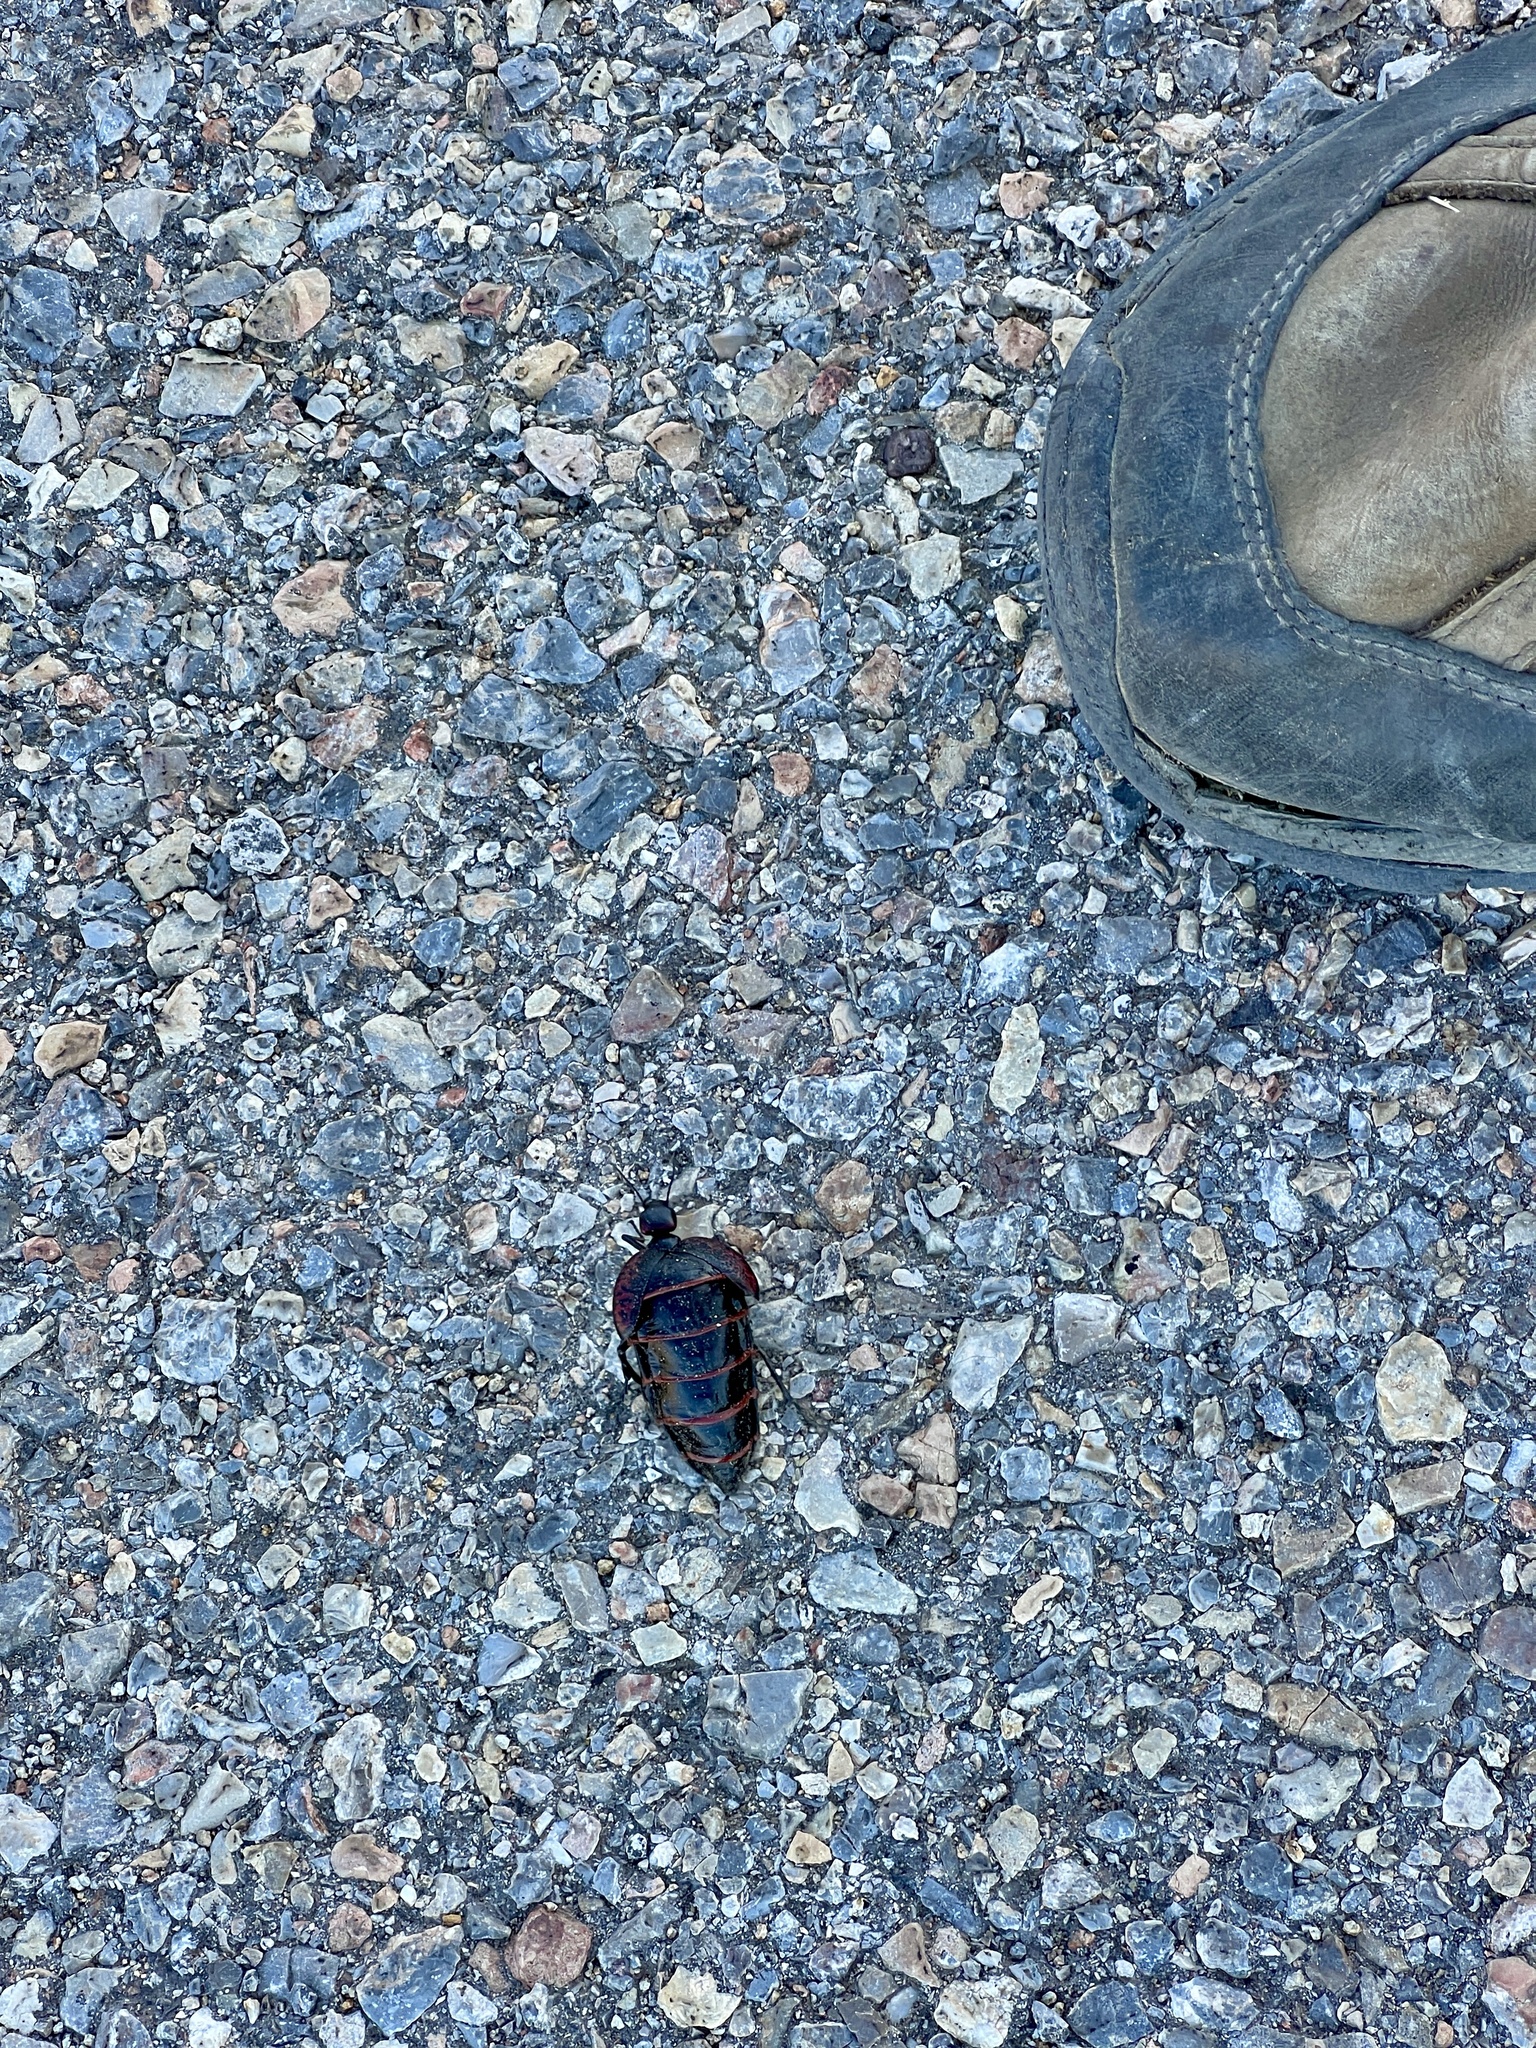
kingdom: Animalia
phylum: Arthropoda
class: Insecta
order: Coleoptera
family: Meloidae
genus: Megetra
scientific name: Megetra cancellata
